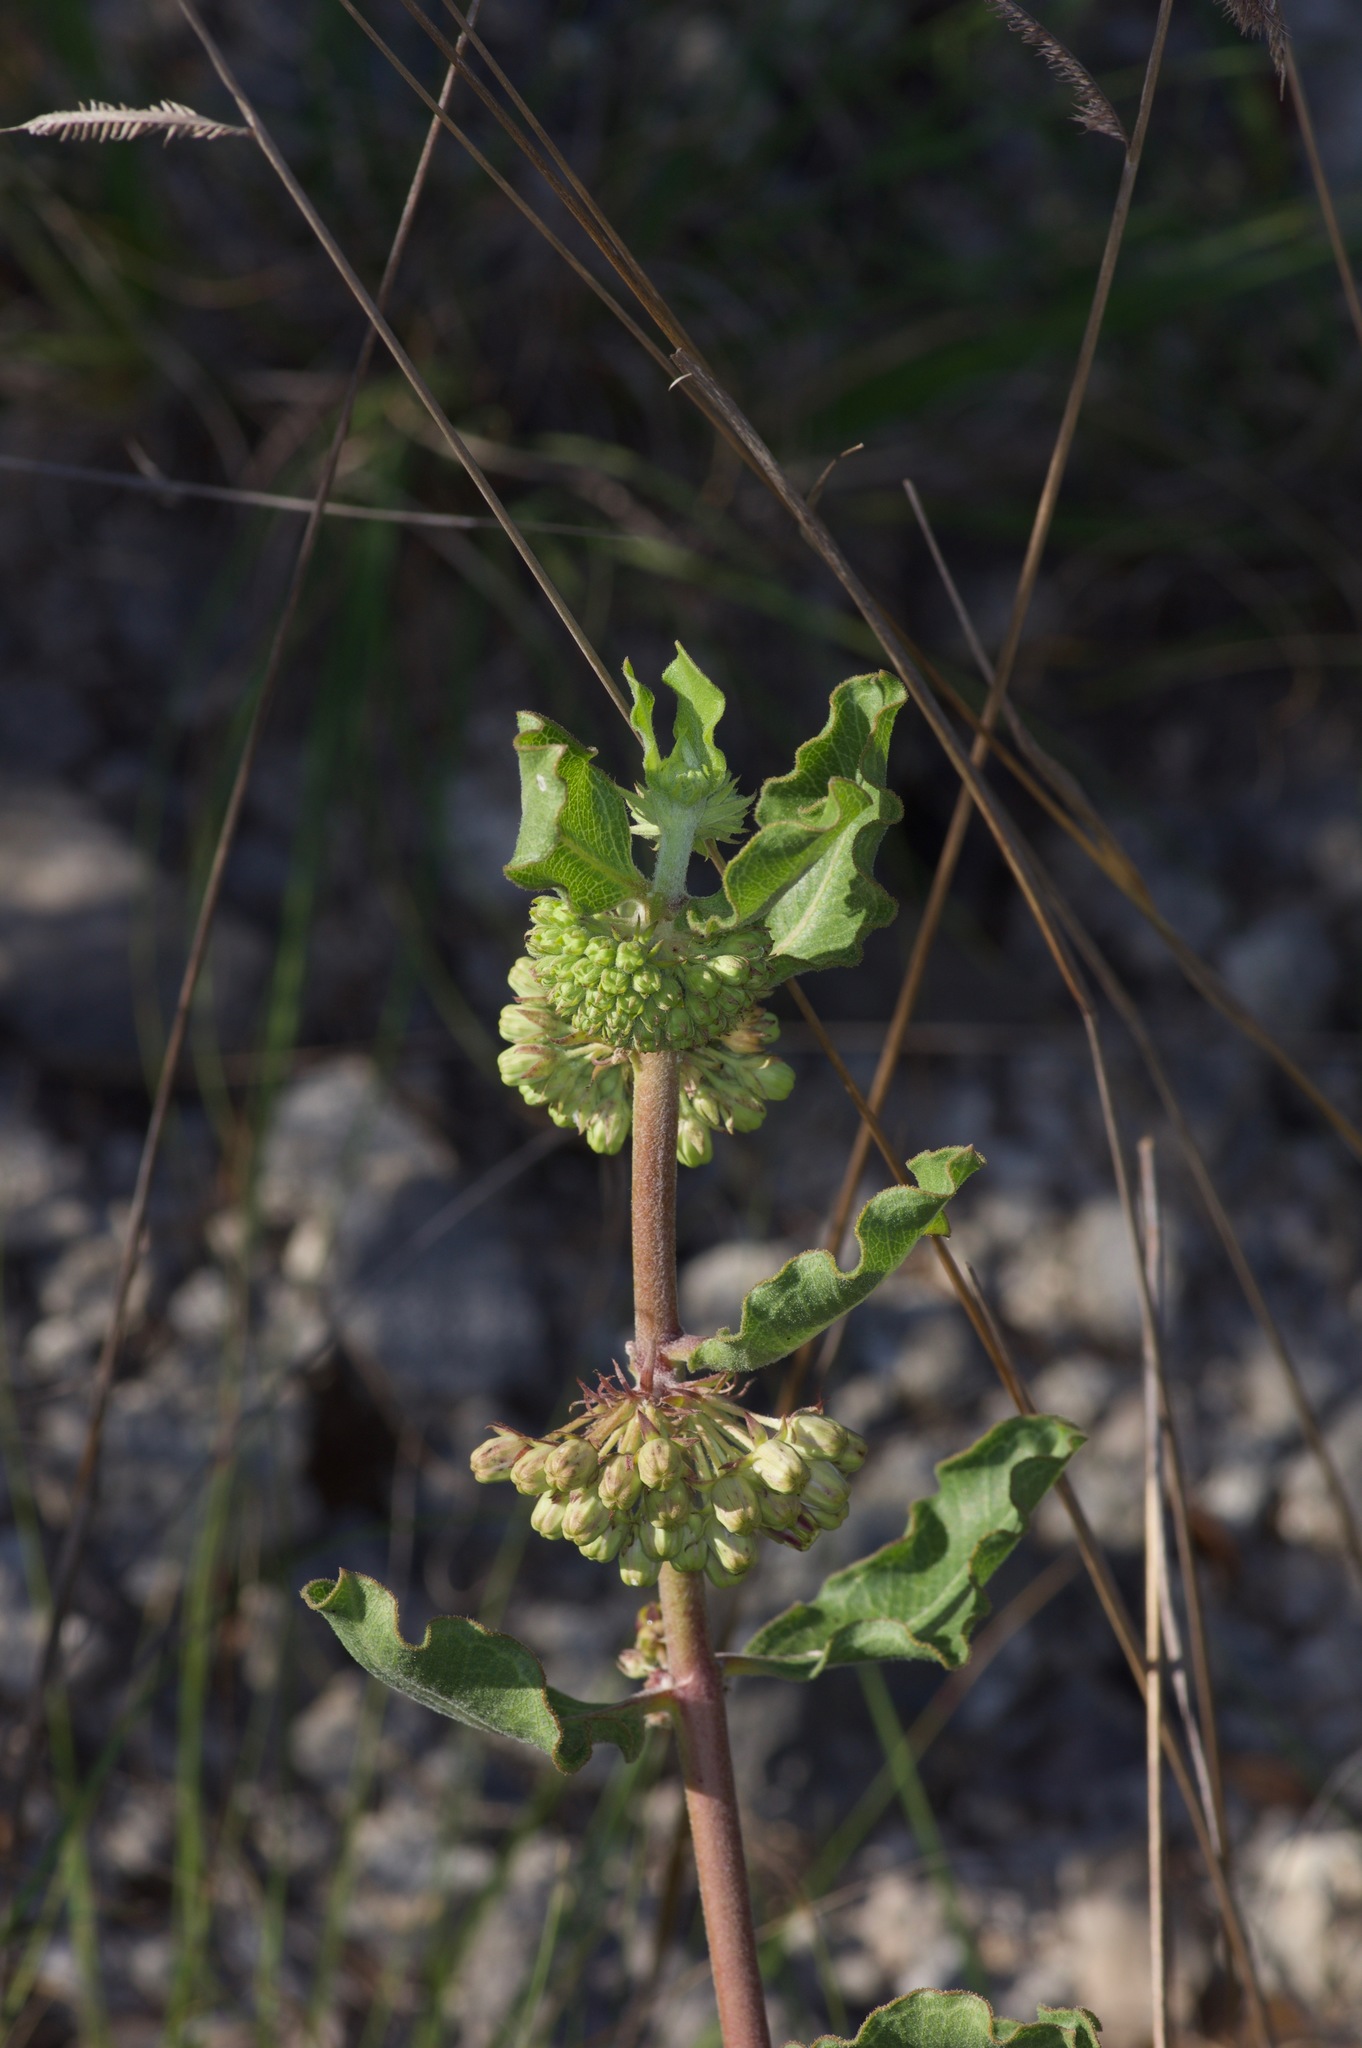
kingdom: Plantae
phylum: Tracheophyta
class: Magnoliopsida
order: Gentianales
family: Apocynaceae
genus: Asclepias
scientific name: Asclepias viridiflora
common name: Green comet milkweed
